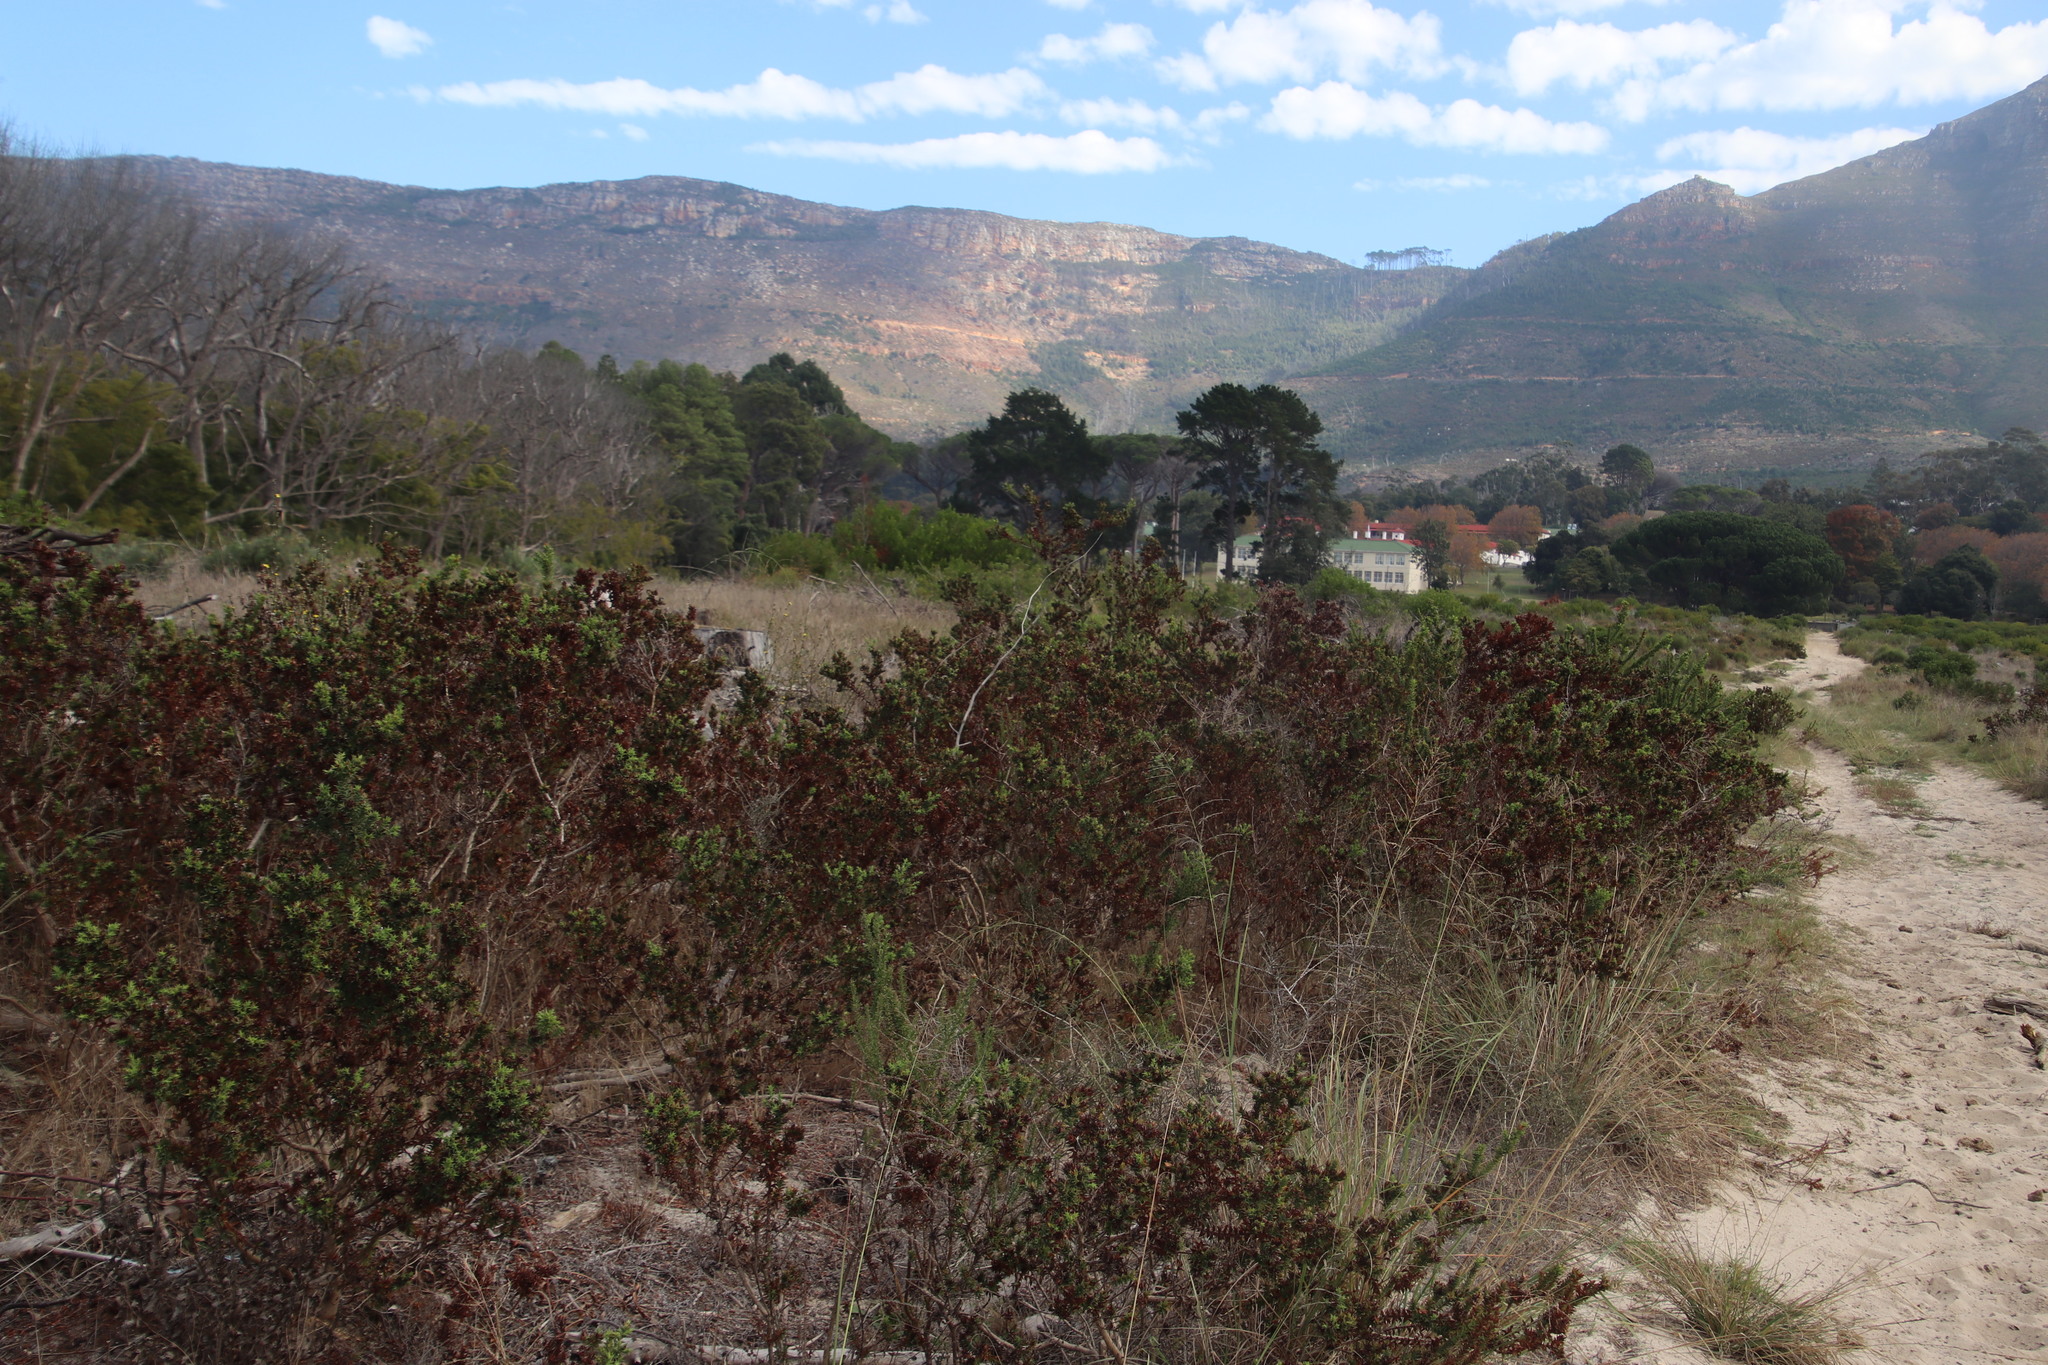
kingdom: Plantae
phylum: Tracheophyta
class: Magnoliopsida
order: Fabales
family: Fabaceae
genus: Aspalathus
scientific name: Aspalathus cordata
